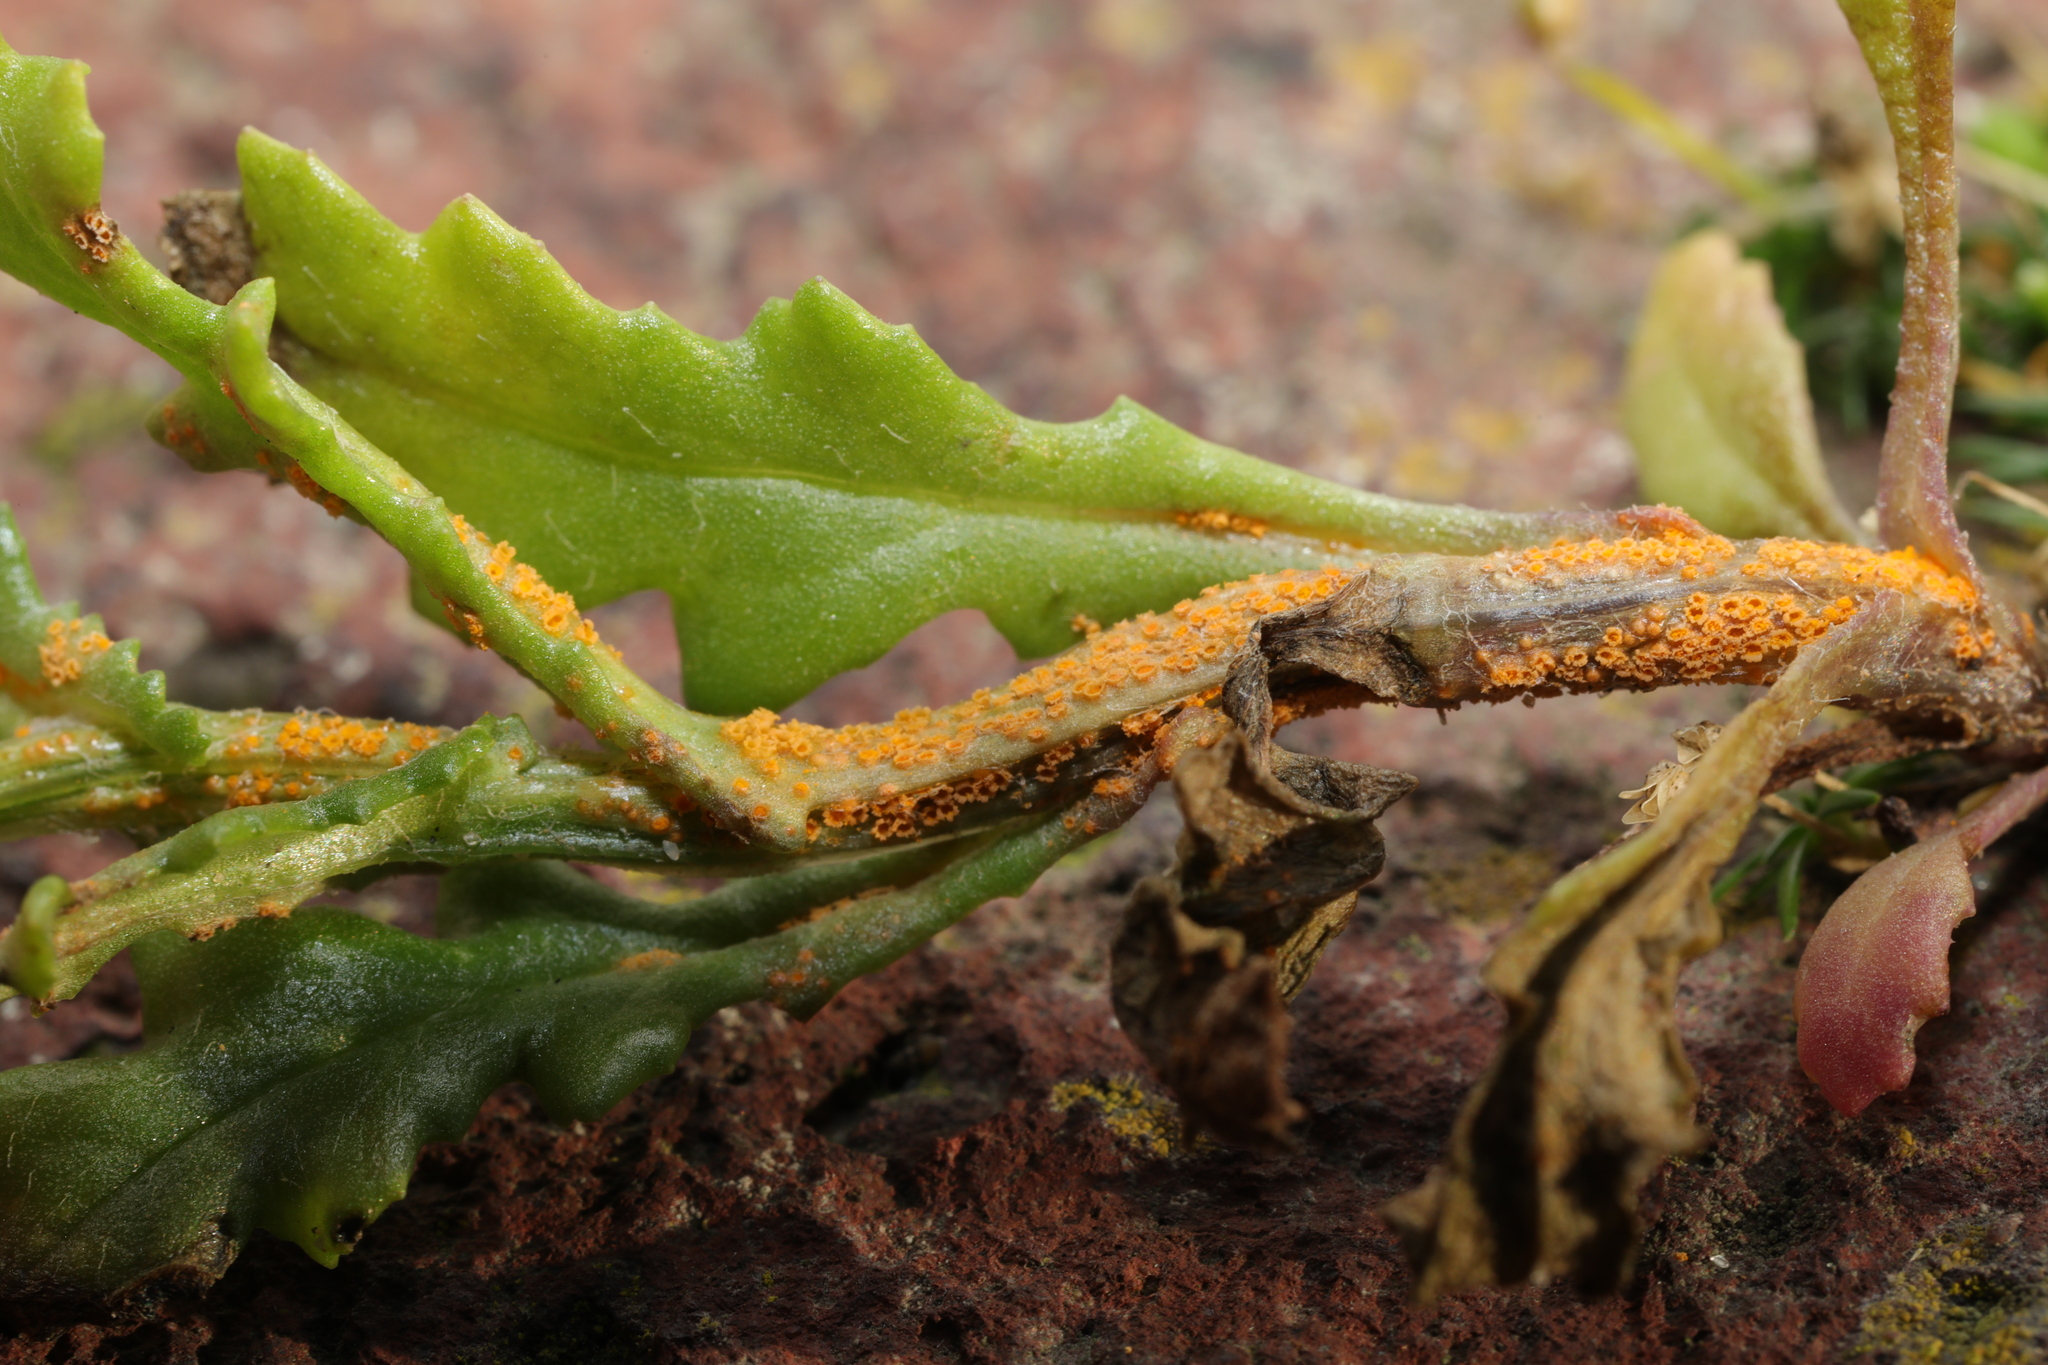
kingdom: Fungi
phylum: Basidiomycota
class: Pucciniomycetes
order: Pucciniales
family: Pucciniaceae
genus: Puccinia
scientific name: Puccinia lagenophorae
